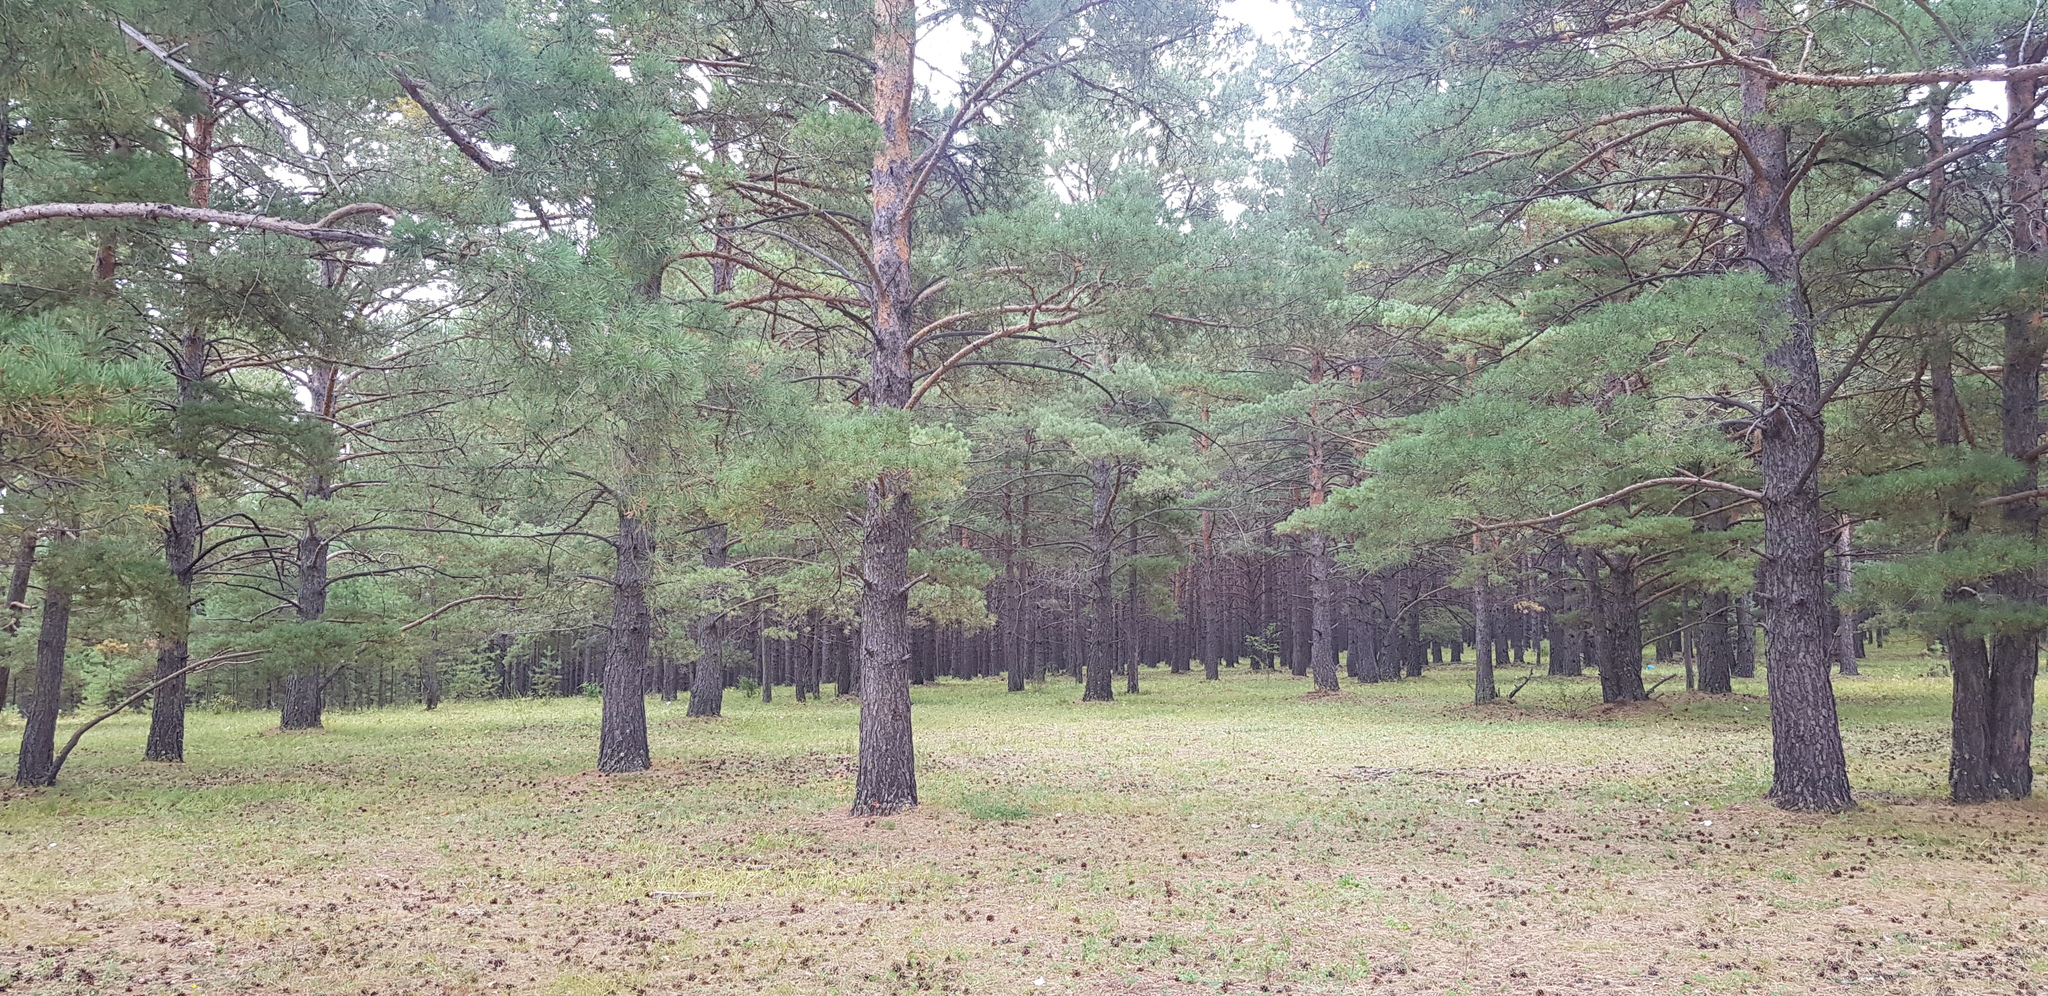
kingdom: Plantae
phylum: Tracheophyta
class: Pinopsida
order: Pinales
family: Pinaceae
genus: Pinus
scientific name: Pinus sylvestris
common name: Scots pine
